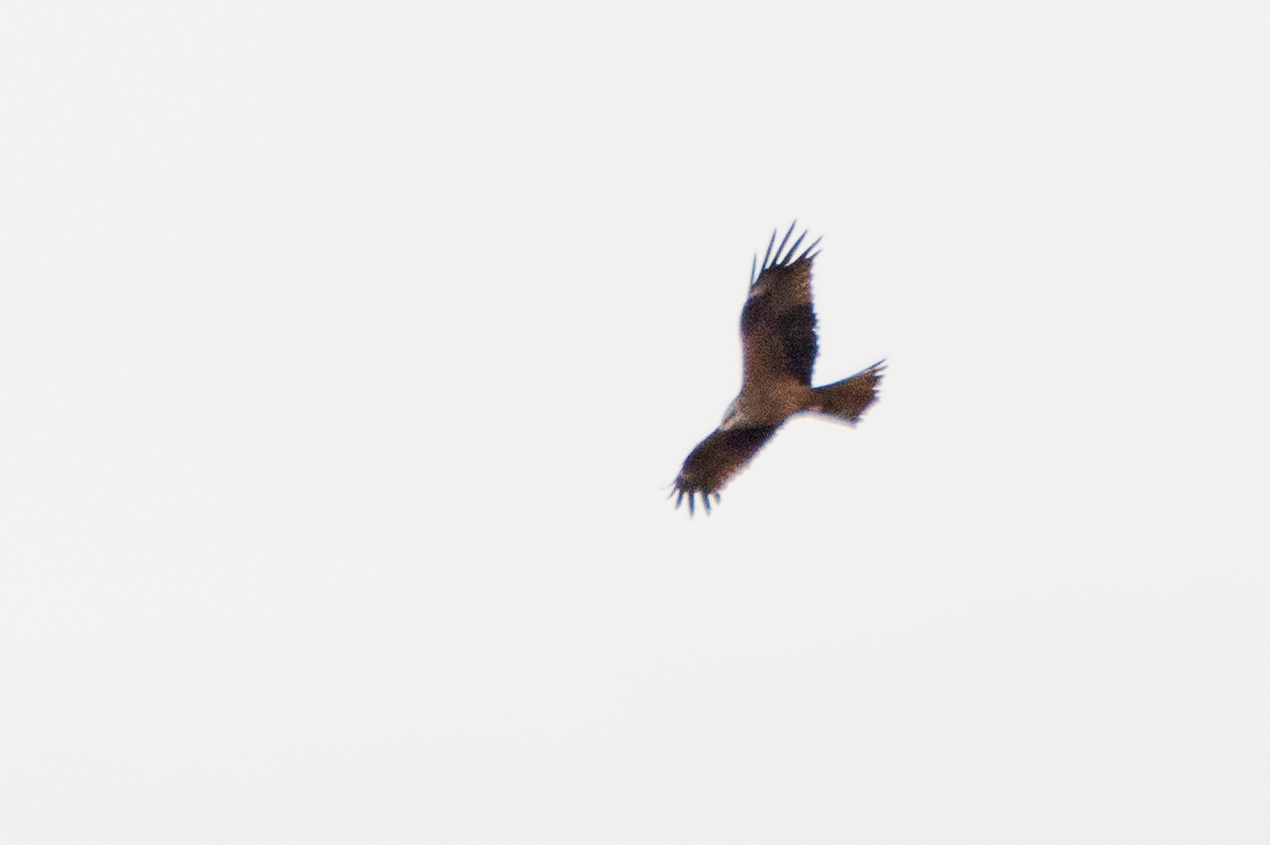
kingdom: Animalia
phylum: Chordata
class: Aves
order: Accipitriformes
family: Accipitridae
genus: Milvus
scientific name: Milvus migrans
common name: Black kite
